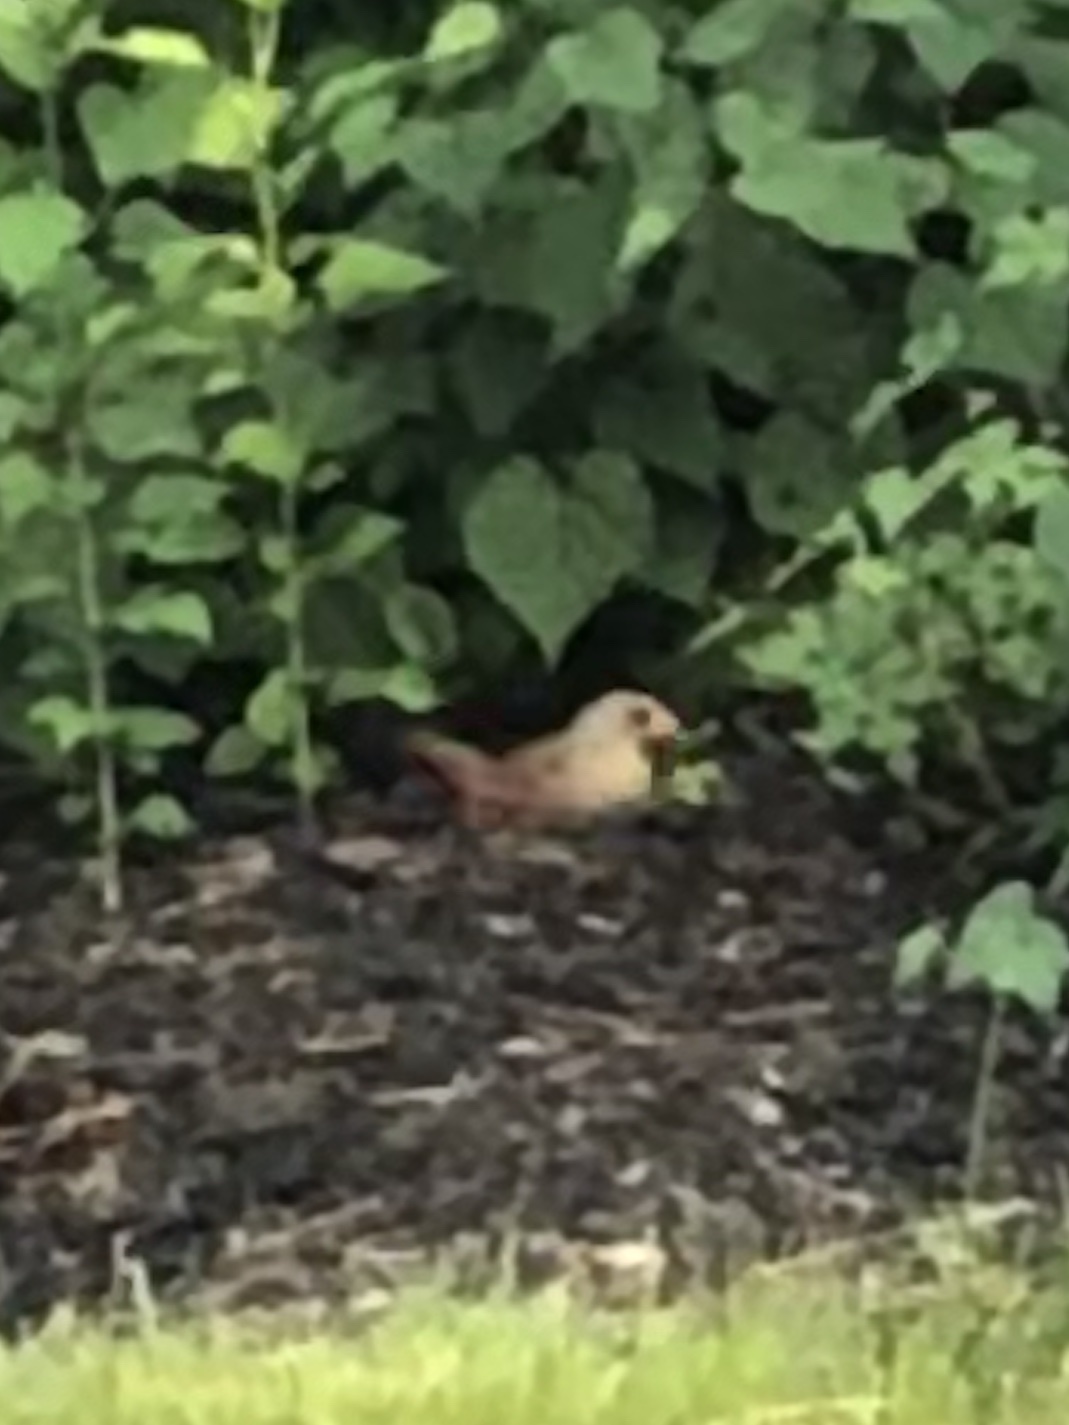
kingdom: Animalia
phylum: Chordata
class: Aves
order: Passeriformes
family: Cardinalidae
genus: Cardinalis
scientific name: Cardinalis cardinalis
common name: Northern cardinal
